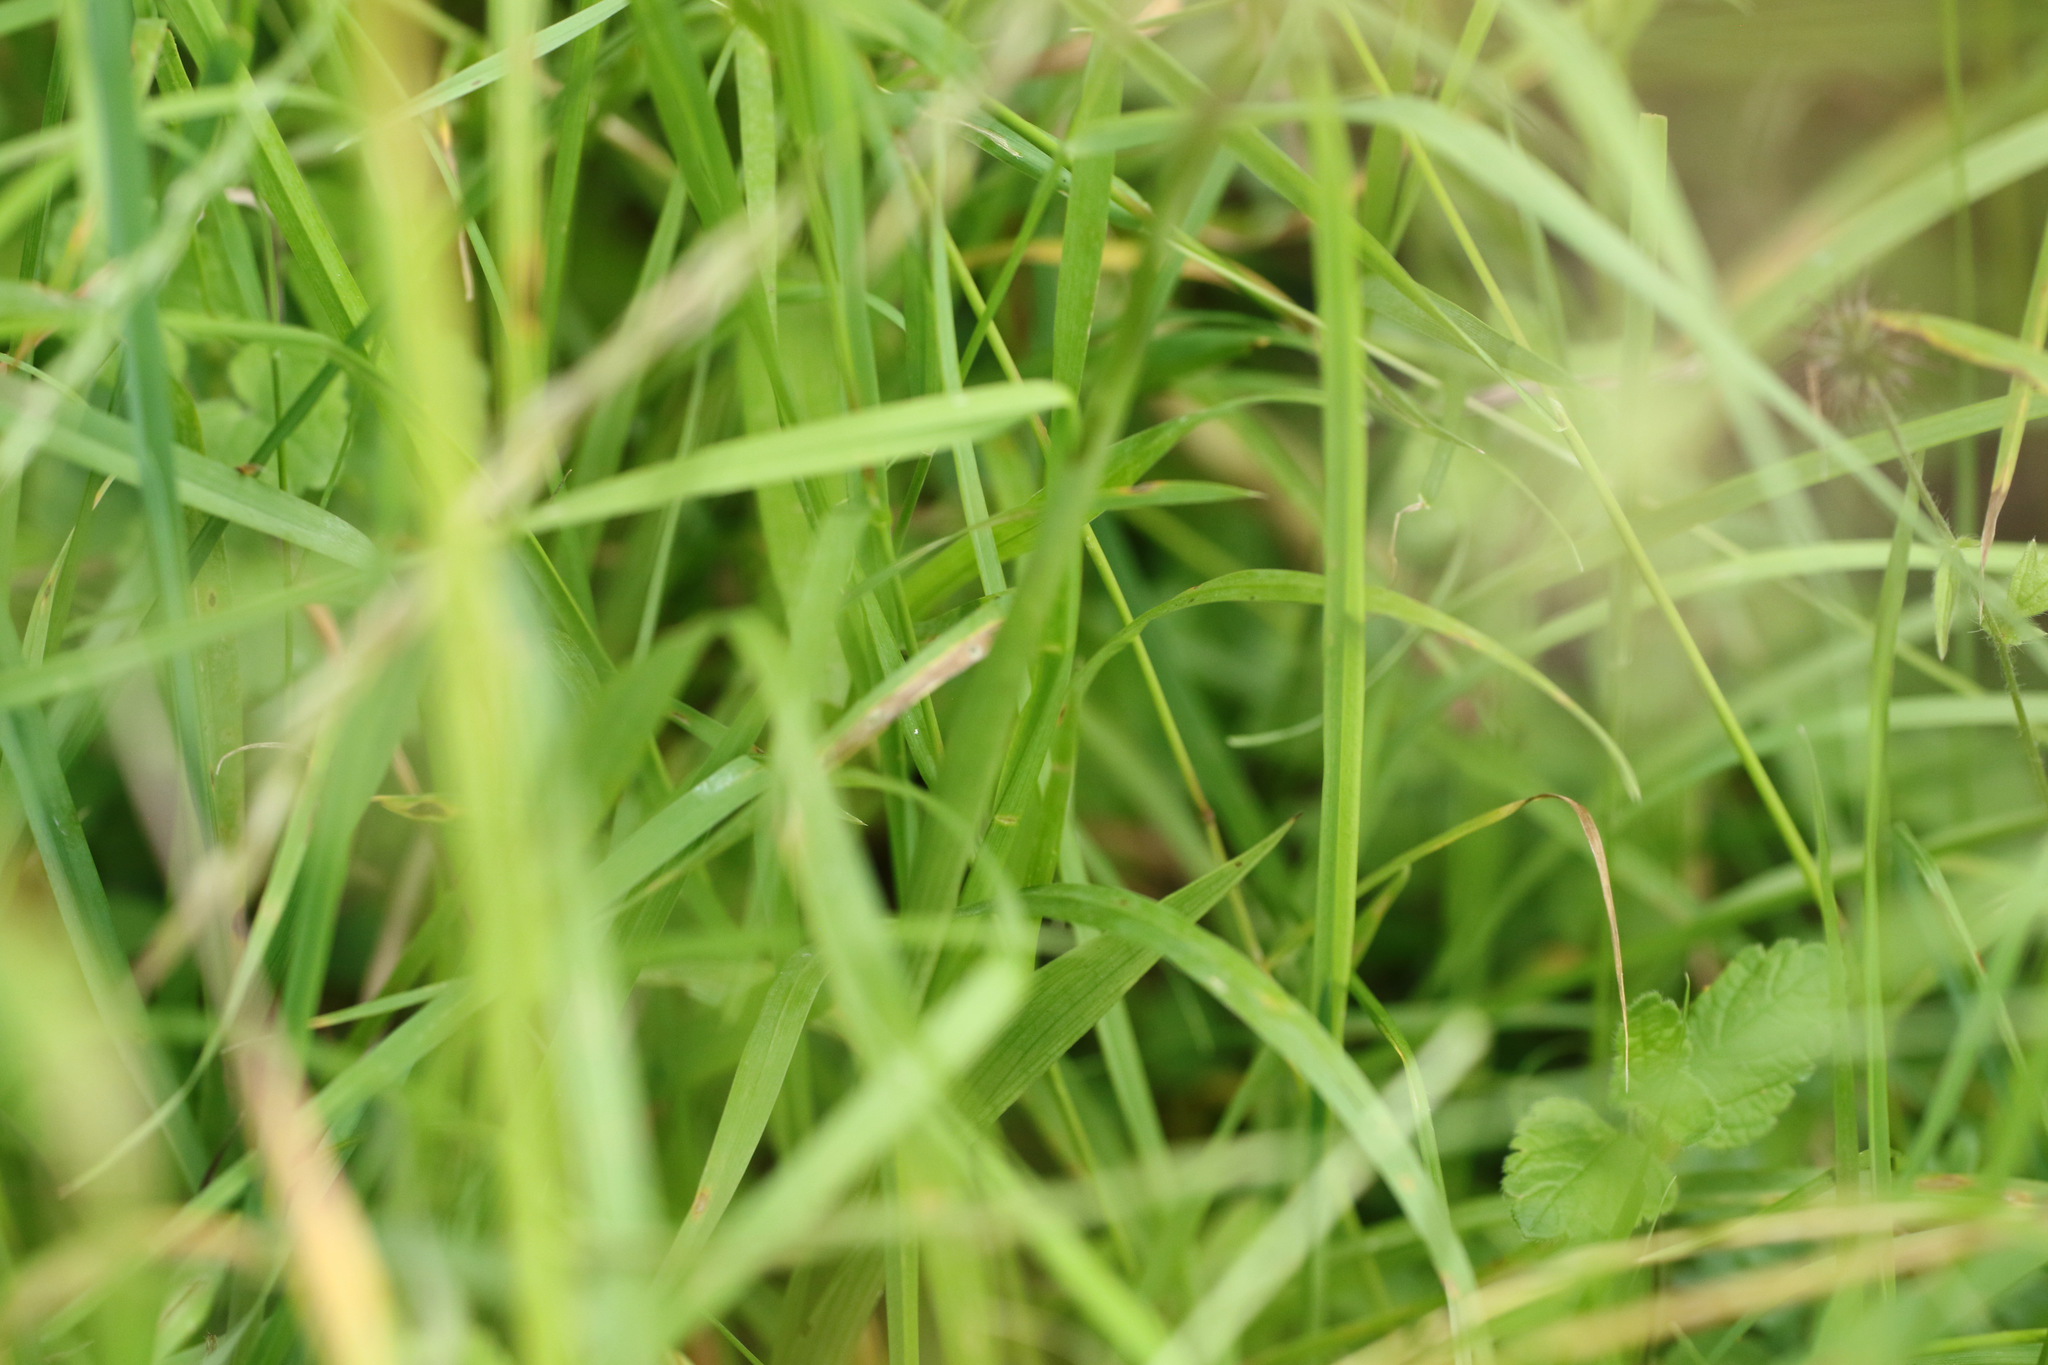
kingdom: Plantae
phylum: Tracheophyta
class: Liliopsida
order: Asparagales
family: Orchidaceae
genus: Anacamptis
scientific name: Anacamptis pyramidalis
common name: Pyramidal orchid
